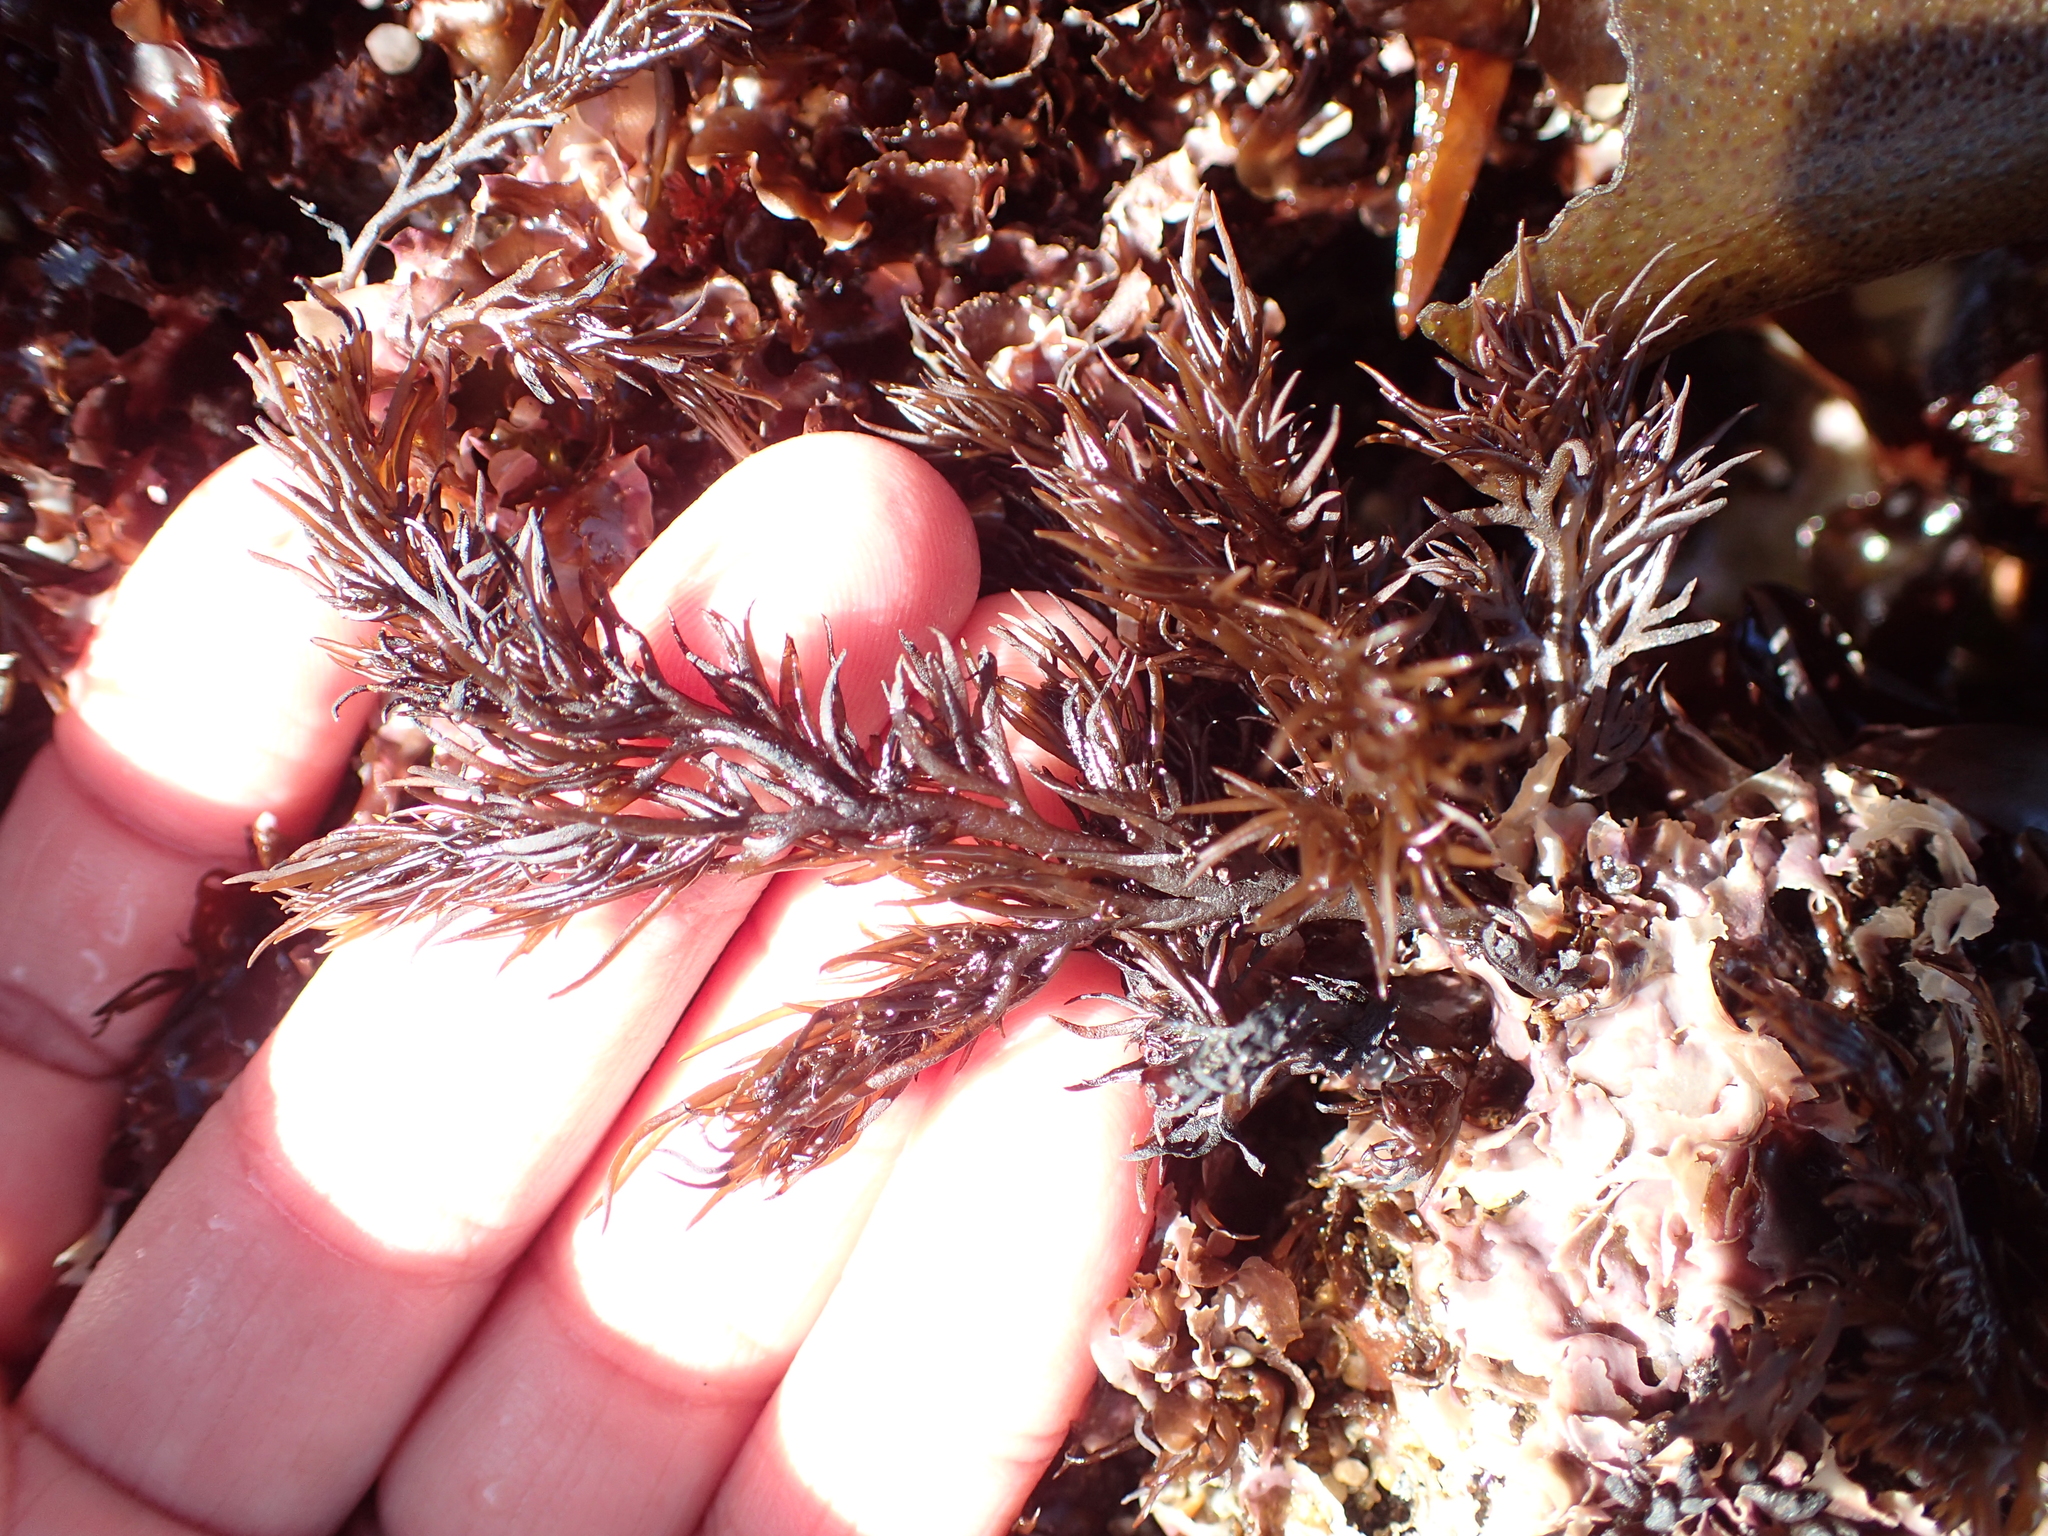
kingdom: Plantae
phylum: Rhodophyta
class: Florideophyceae
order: Ceramiales
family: Rhodomelaceae
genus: Odonthalia
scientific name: Odonthalia floccosa
